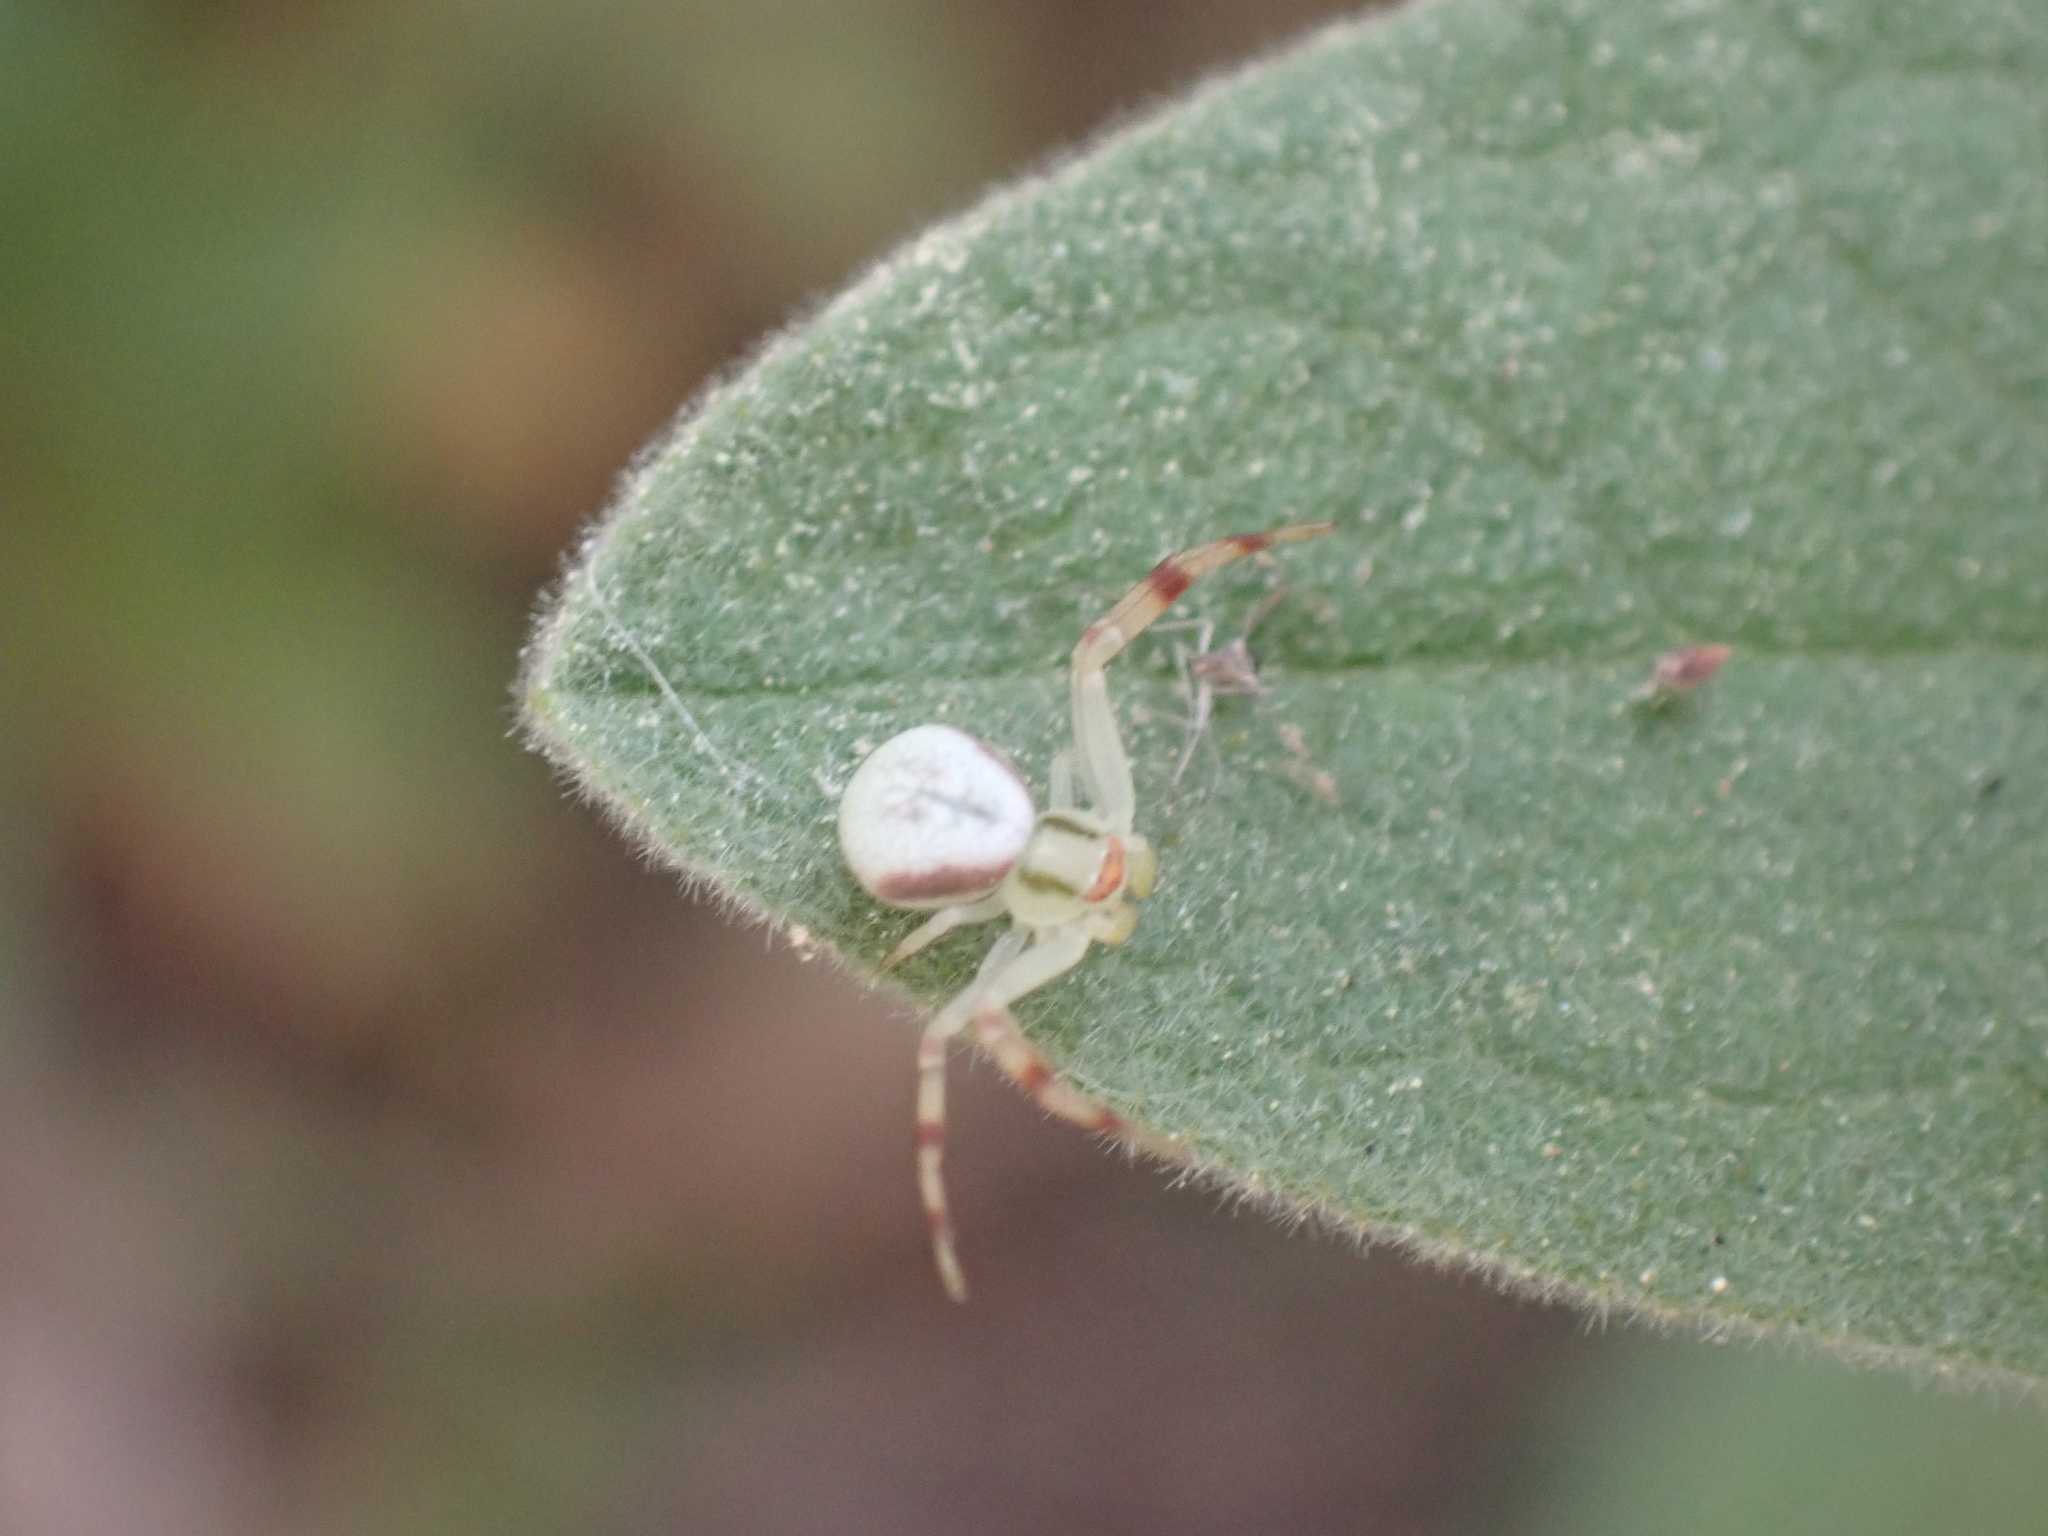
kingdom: Animalia
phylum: Arthropoda
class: Arachnida
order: Araneae
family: Thomisidae
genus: Misumena
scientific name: Misumena vatia
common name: Goldenrod crab spider
